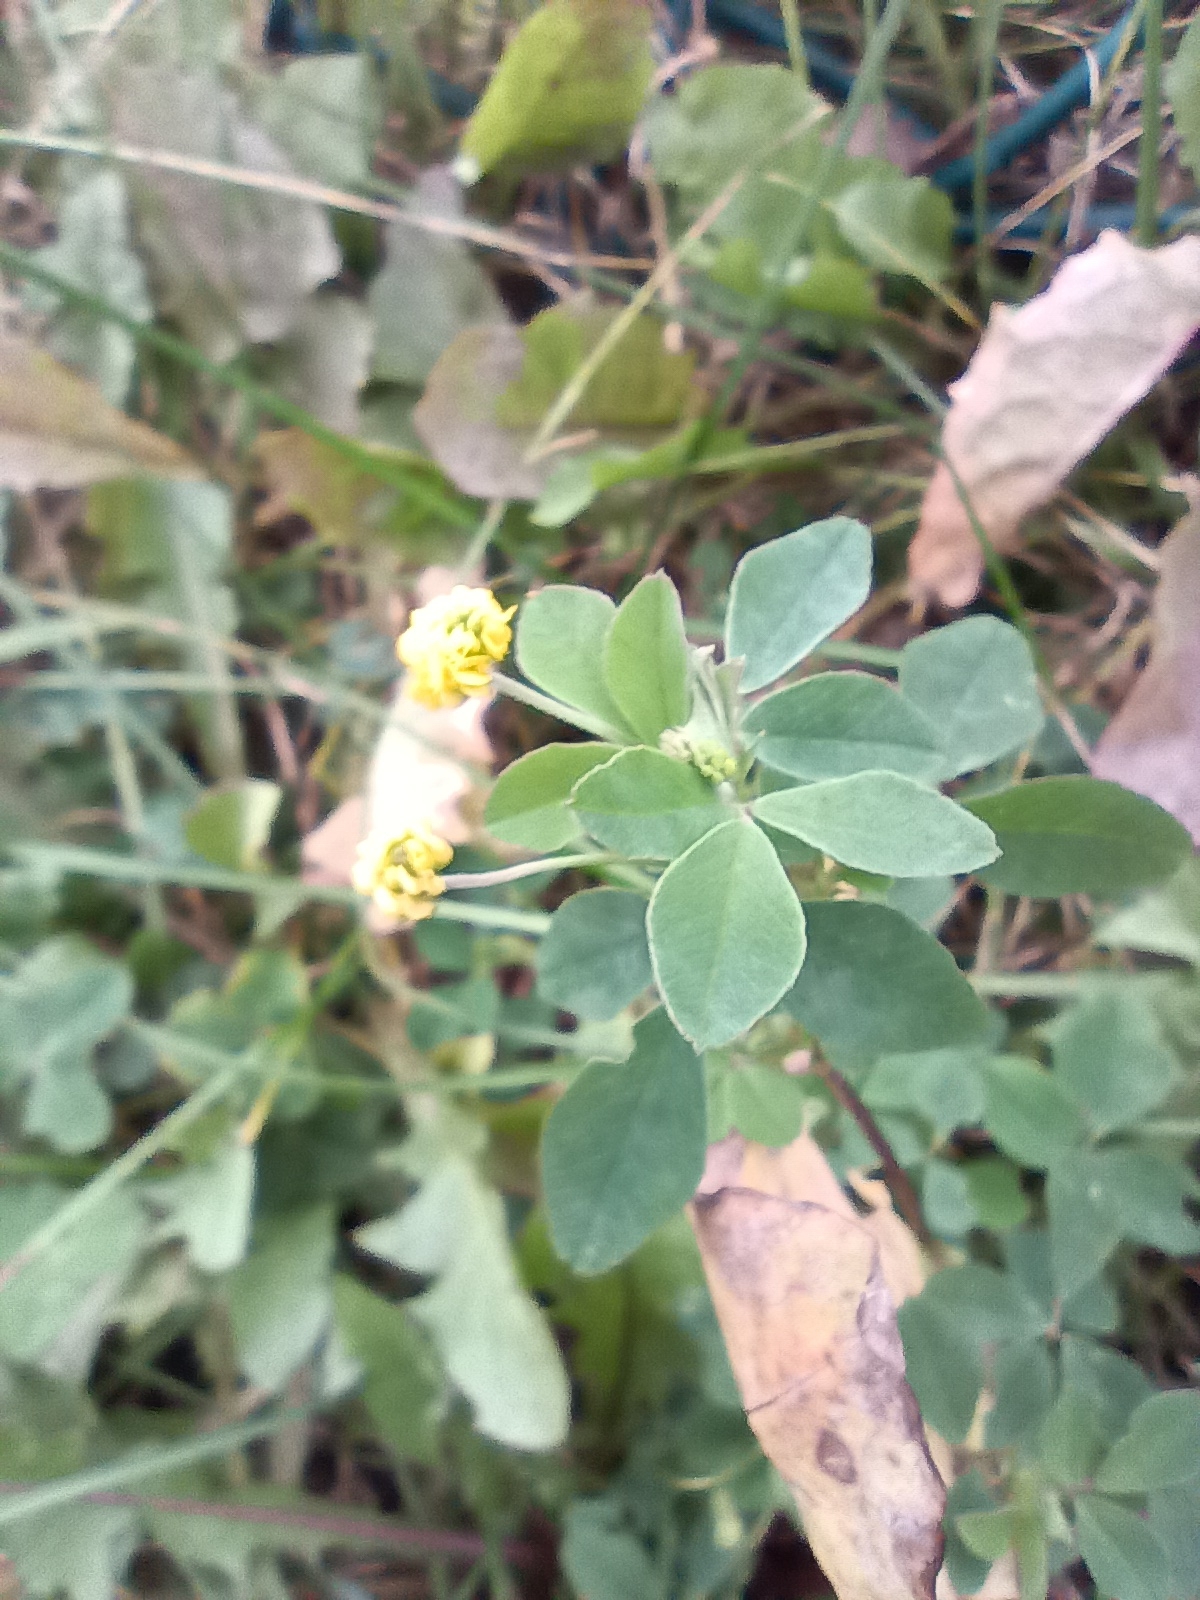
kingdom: Plantae
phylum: Tracheophyta
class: Magnoliopsida
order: Fabales
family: Fabaceae
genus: Medicago
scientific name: Medicago lupulina
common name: Black medick
